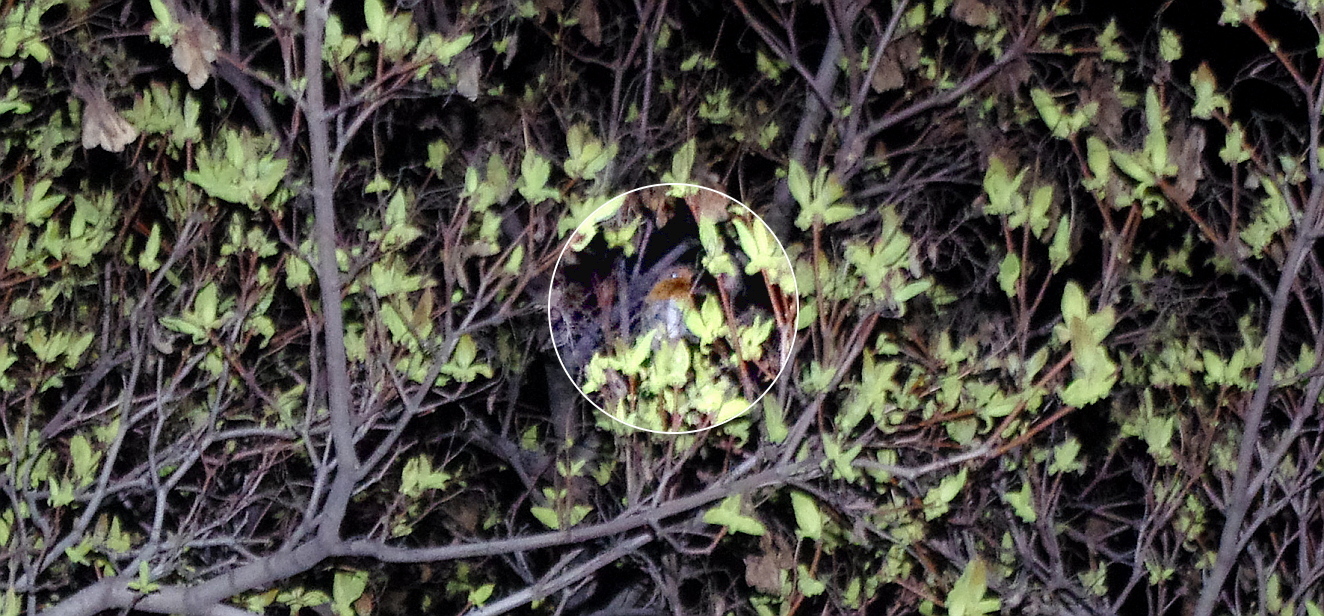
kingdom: Animalia
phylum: Chordata
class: Aves
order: Passeriformes
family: Muscicapidae
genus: Erithacus
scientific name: Erithacus rubecula
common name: European robin
